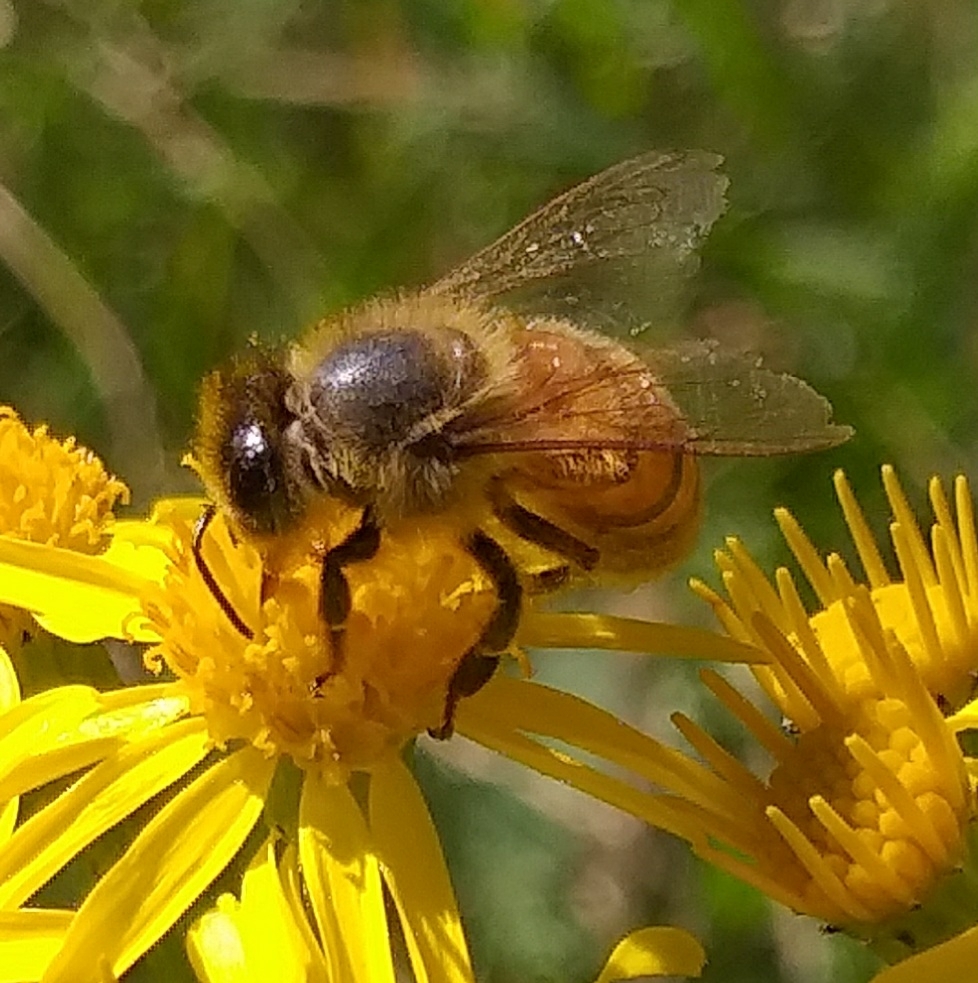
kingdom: Animalia
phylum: Arthropoda
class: Insecta
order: Hymenoptera
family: Apidae
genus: Apis
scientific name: Apis mellifera
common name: Honey bee
